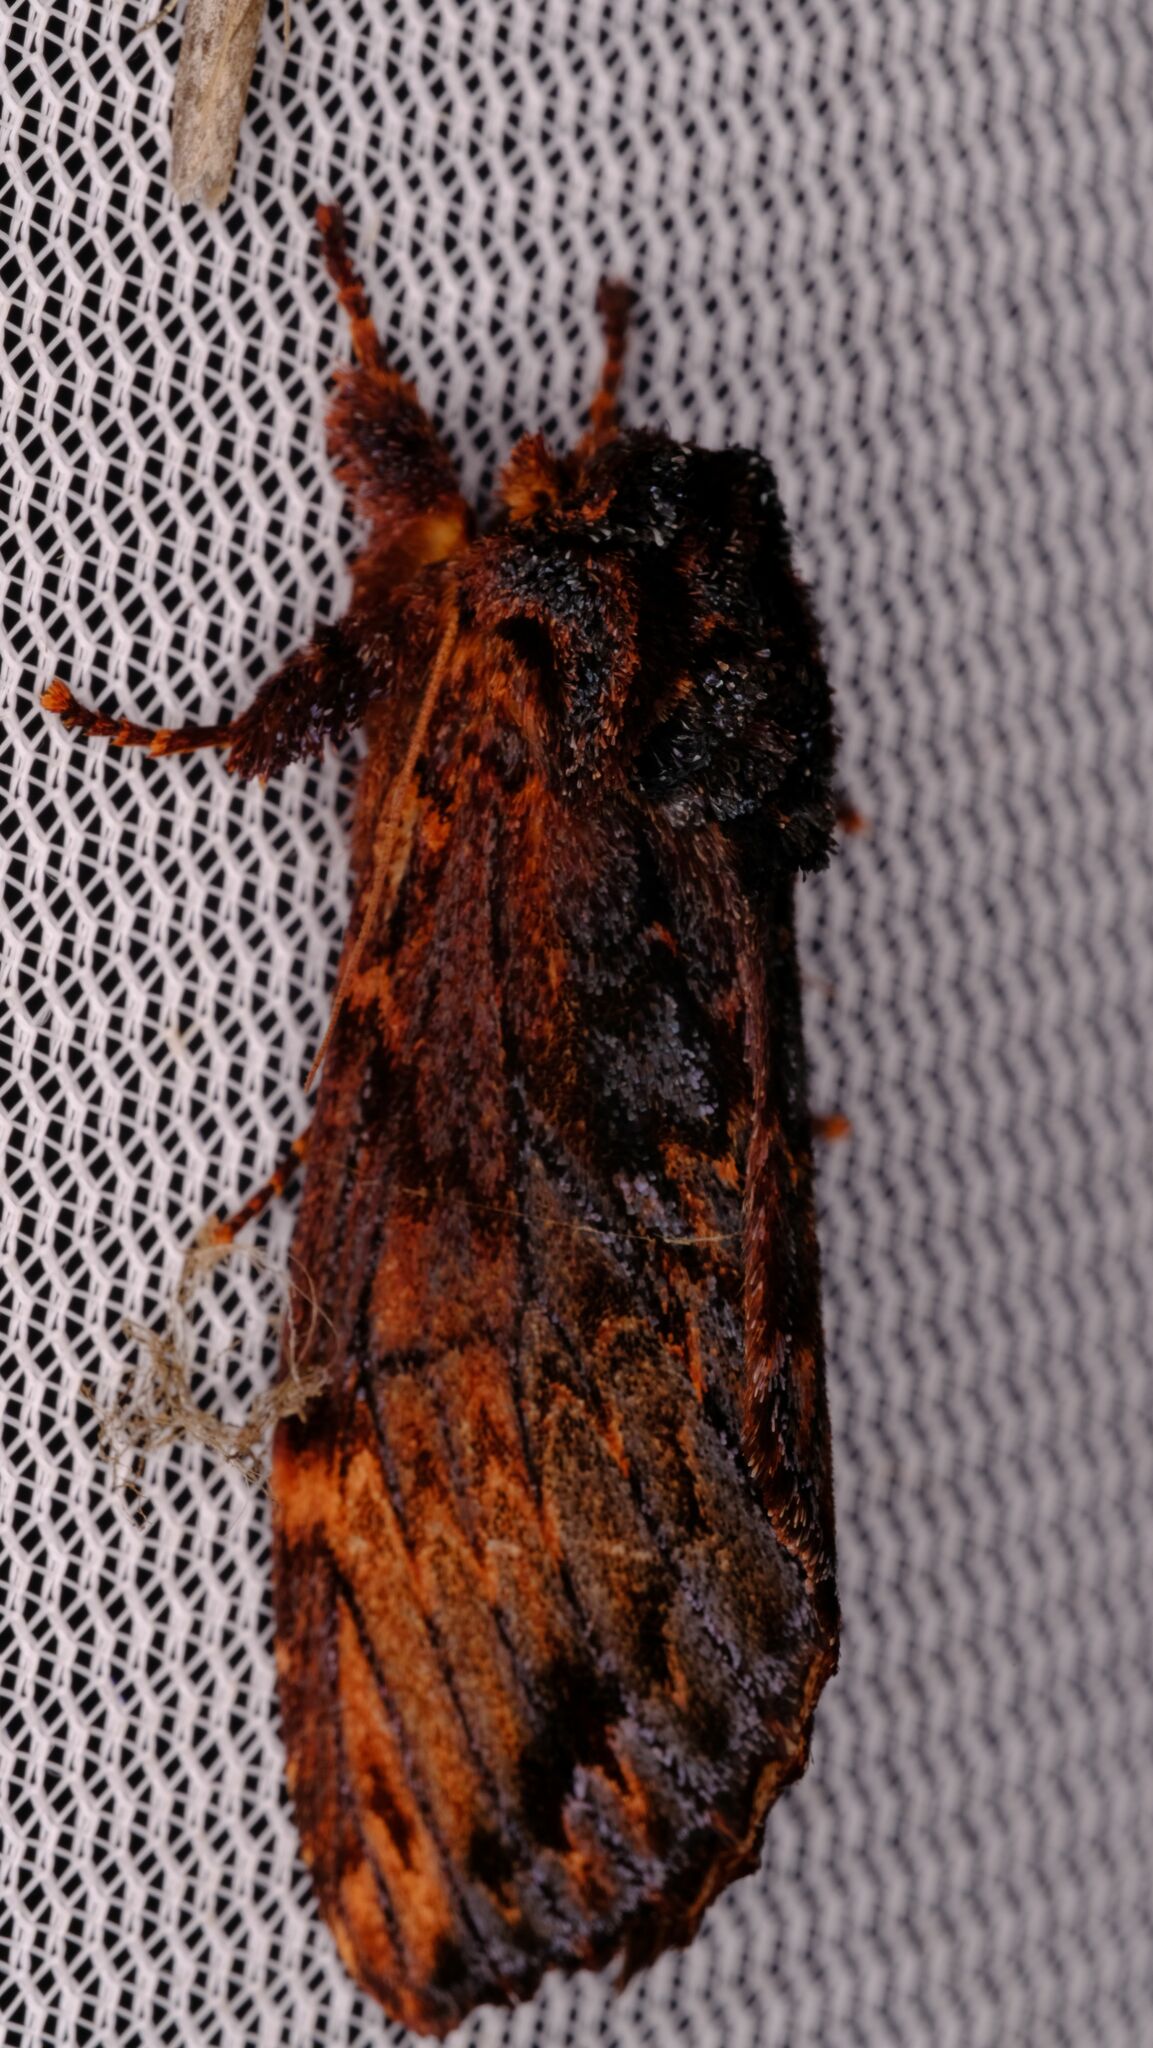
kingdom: Animalia
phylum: Arthropoda
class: Insecta
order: Lepidoptera
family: Notodontidae
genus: Sorama
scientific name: Sorama bicolor
